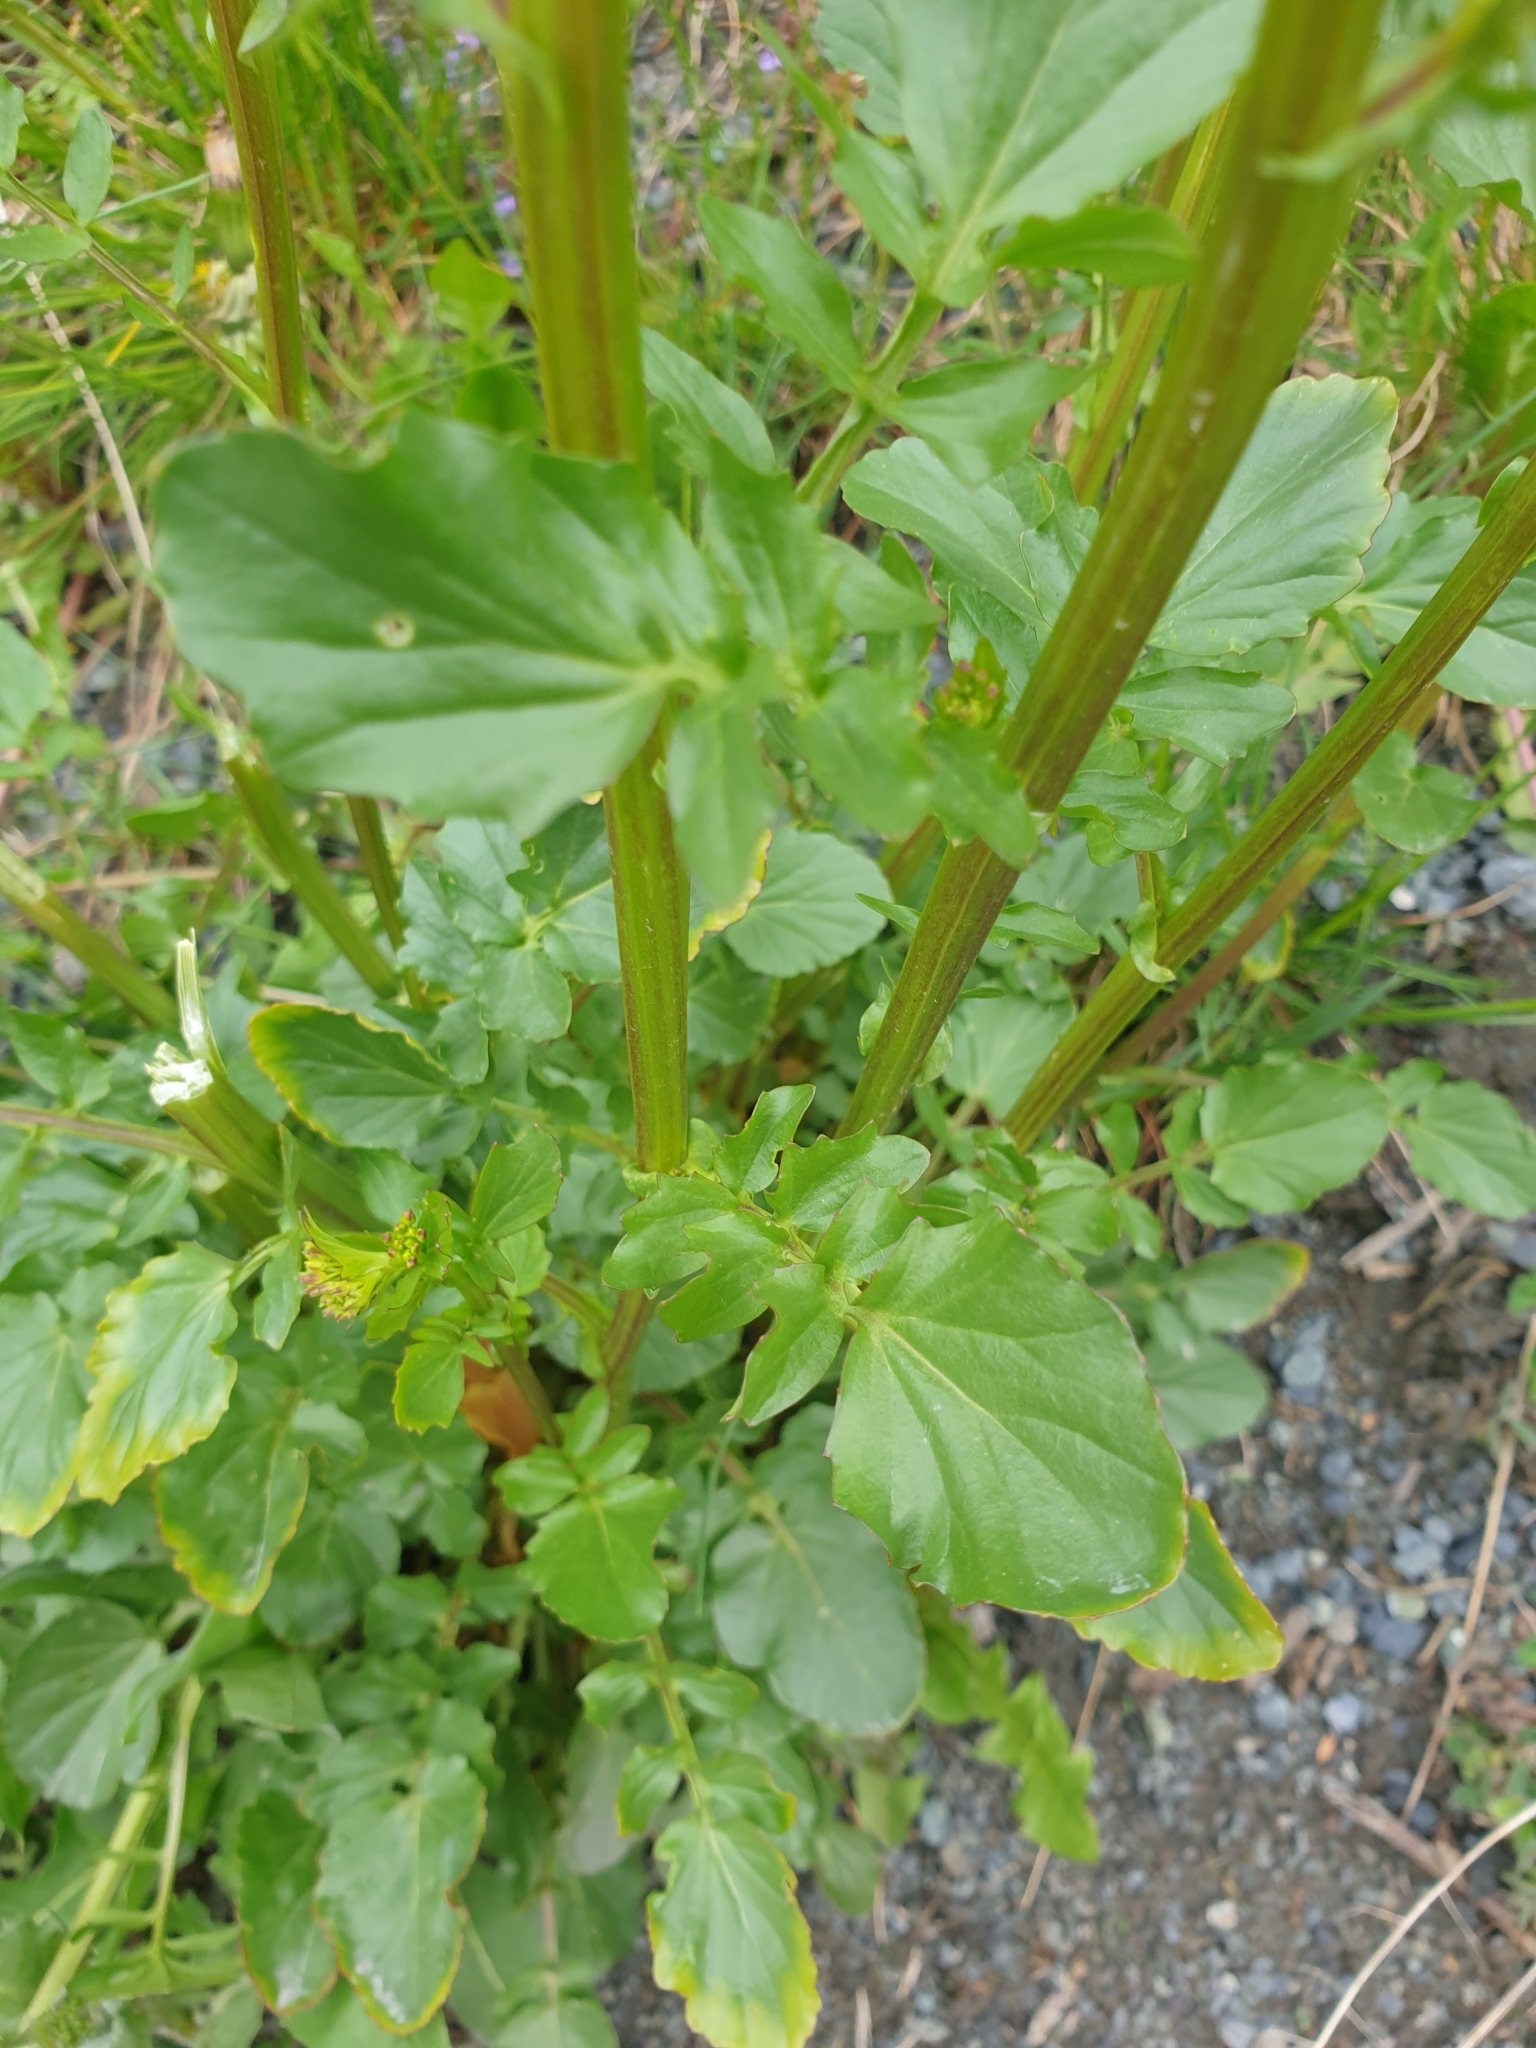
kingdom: Plantae
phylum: Tracheophyta
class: Magnoliopsida
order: Brassicales
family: Brassicaceae
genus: Barbarea
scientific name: Barbarea vulgaris
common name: Cressy-greens
